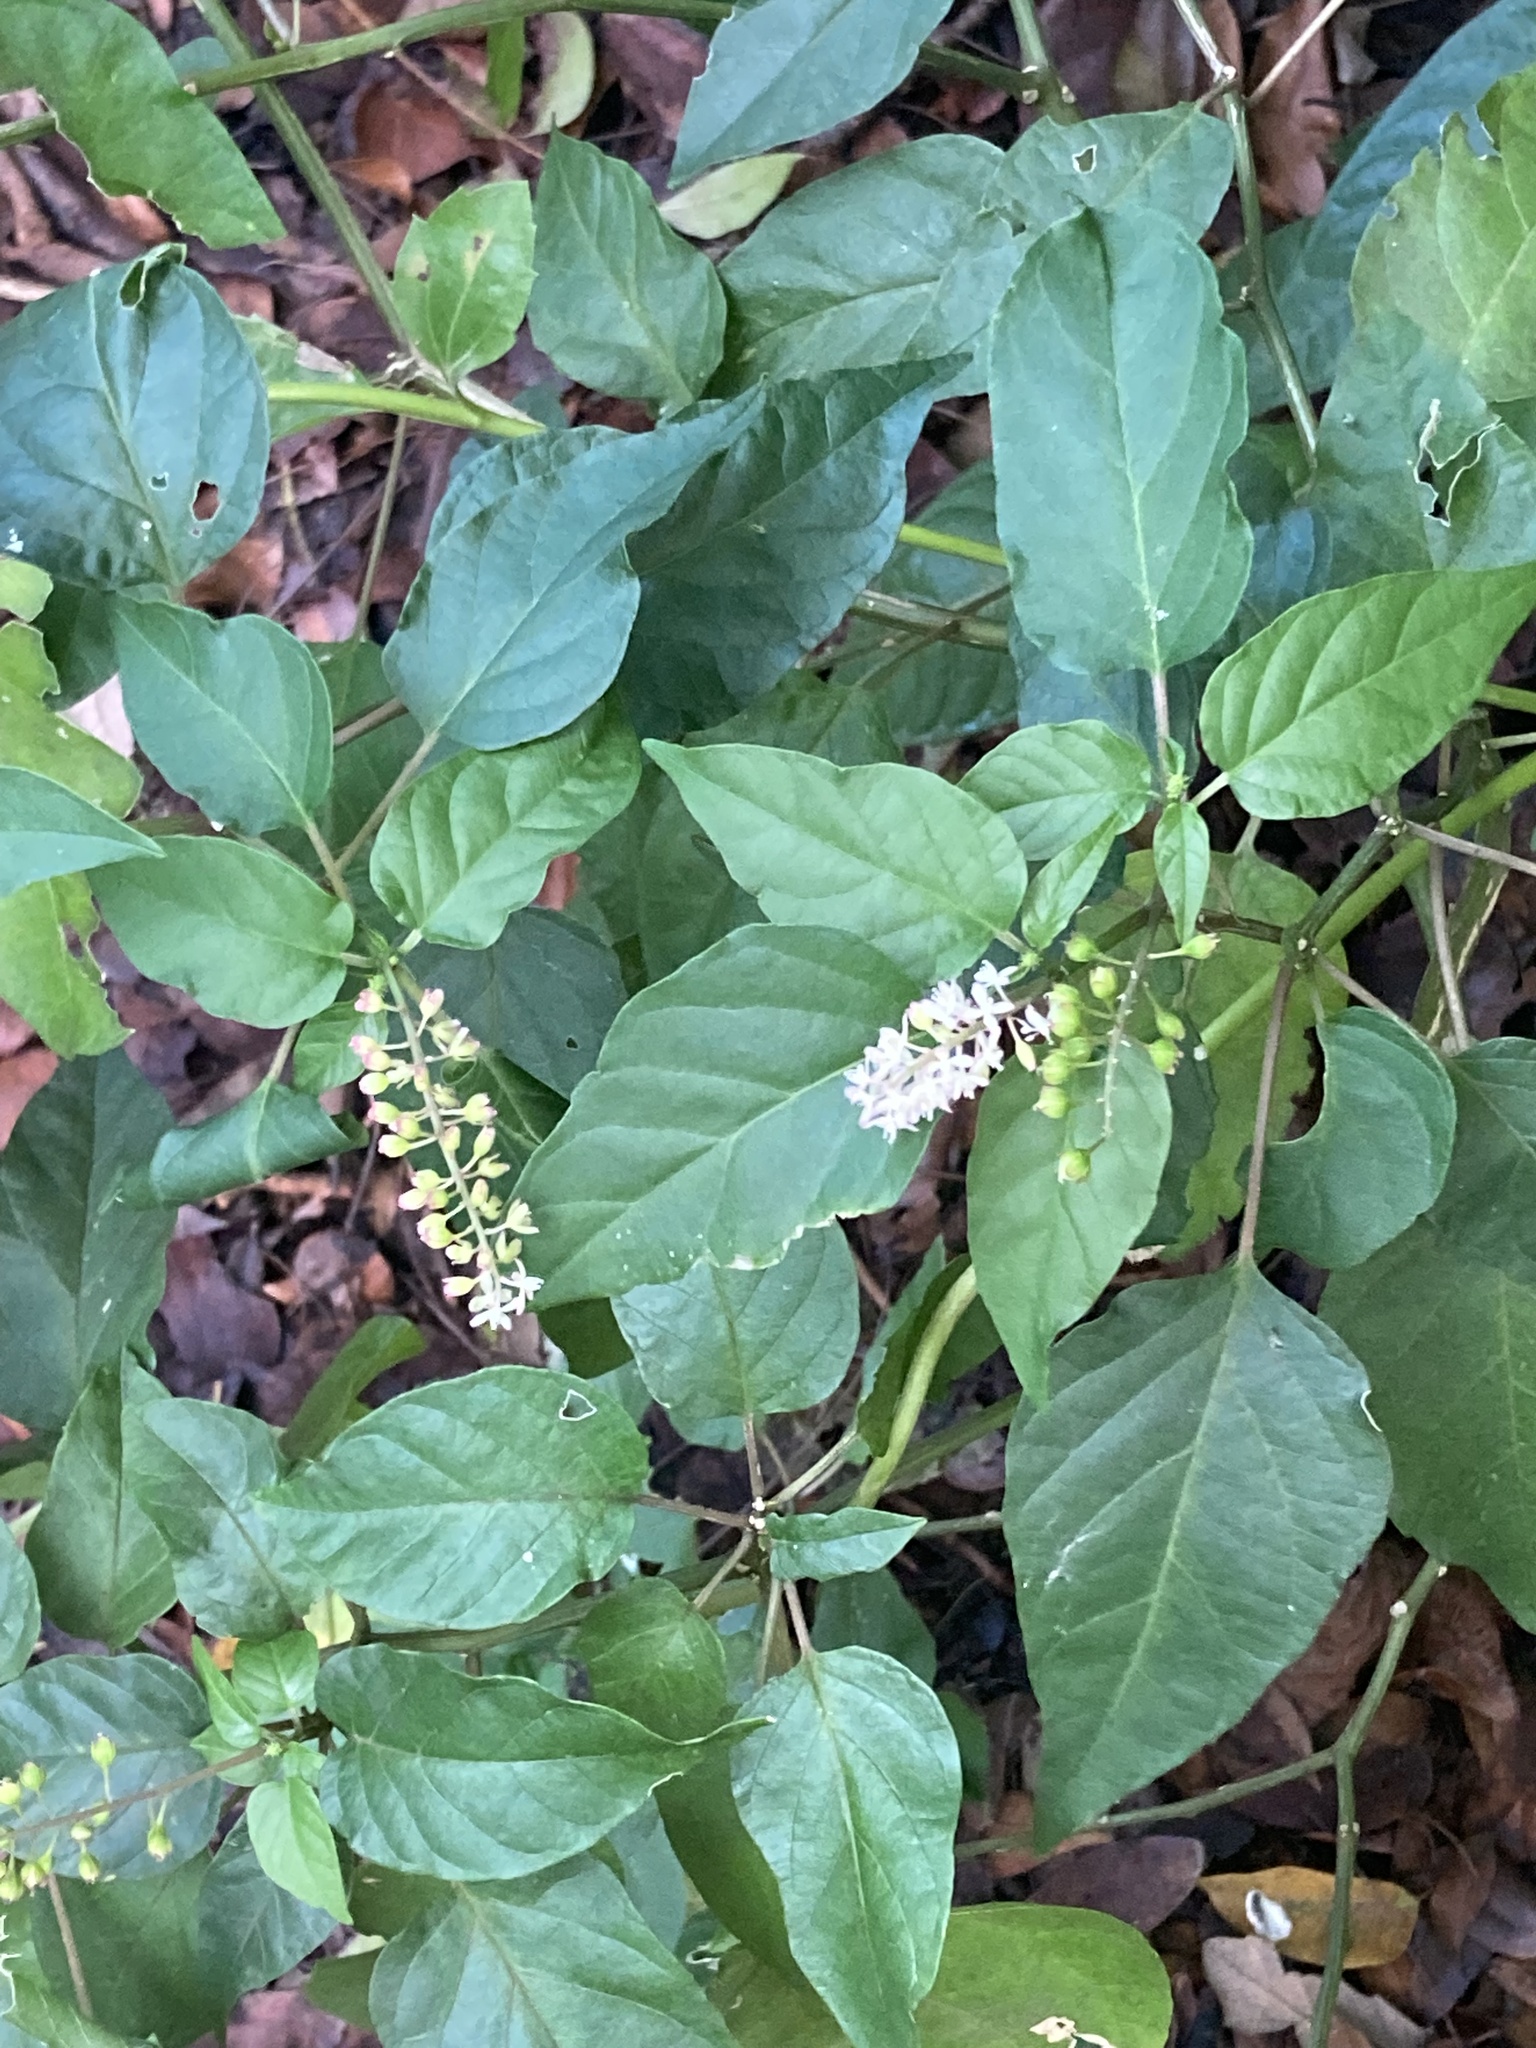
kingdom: Plantae
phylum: Tracheophyta
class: Magnoliopsida
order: Caryophyllales
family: Phytolaccaceae
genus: Rivina
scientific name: Rivina humilis
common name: Rougeplant
